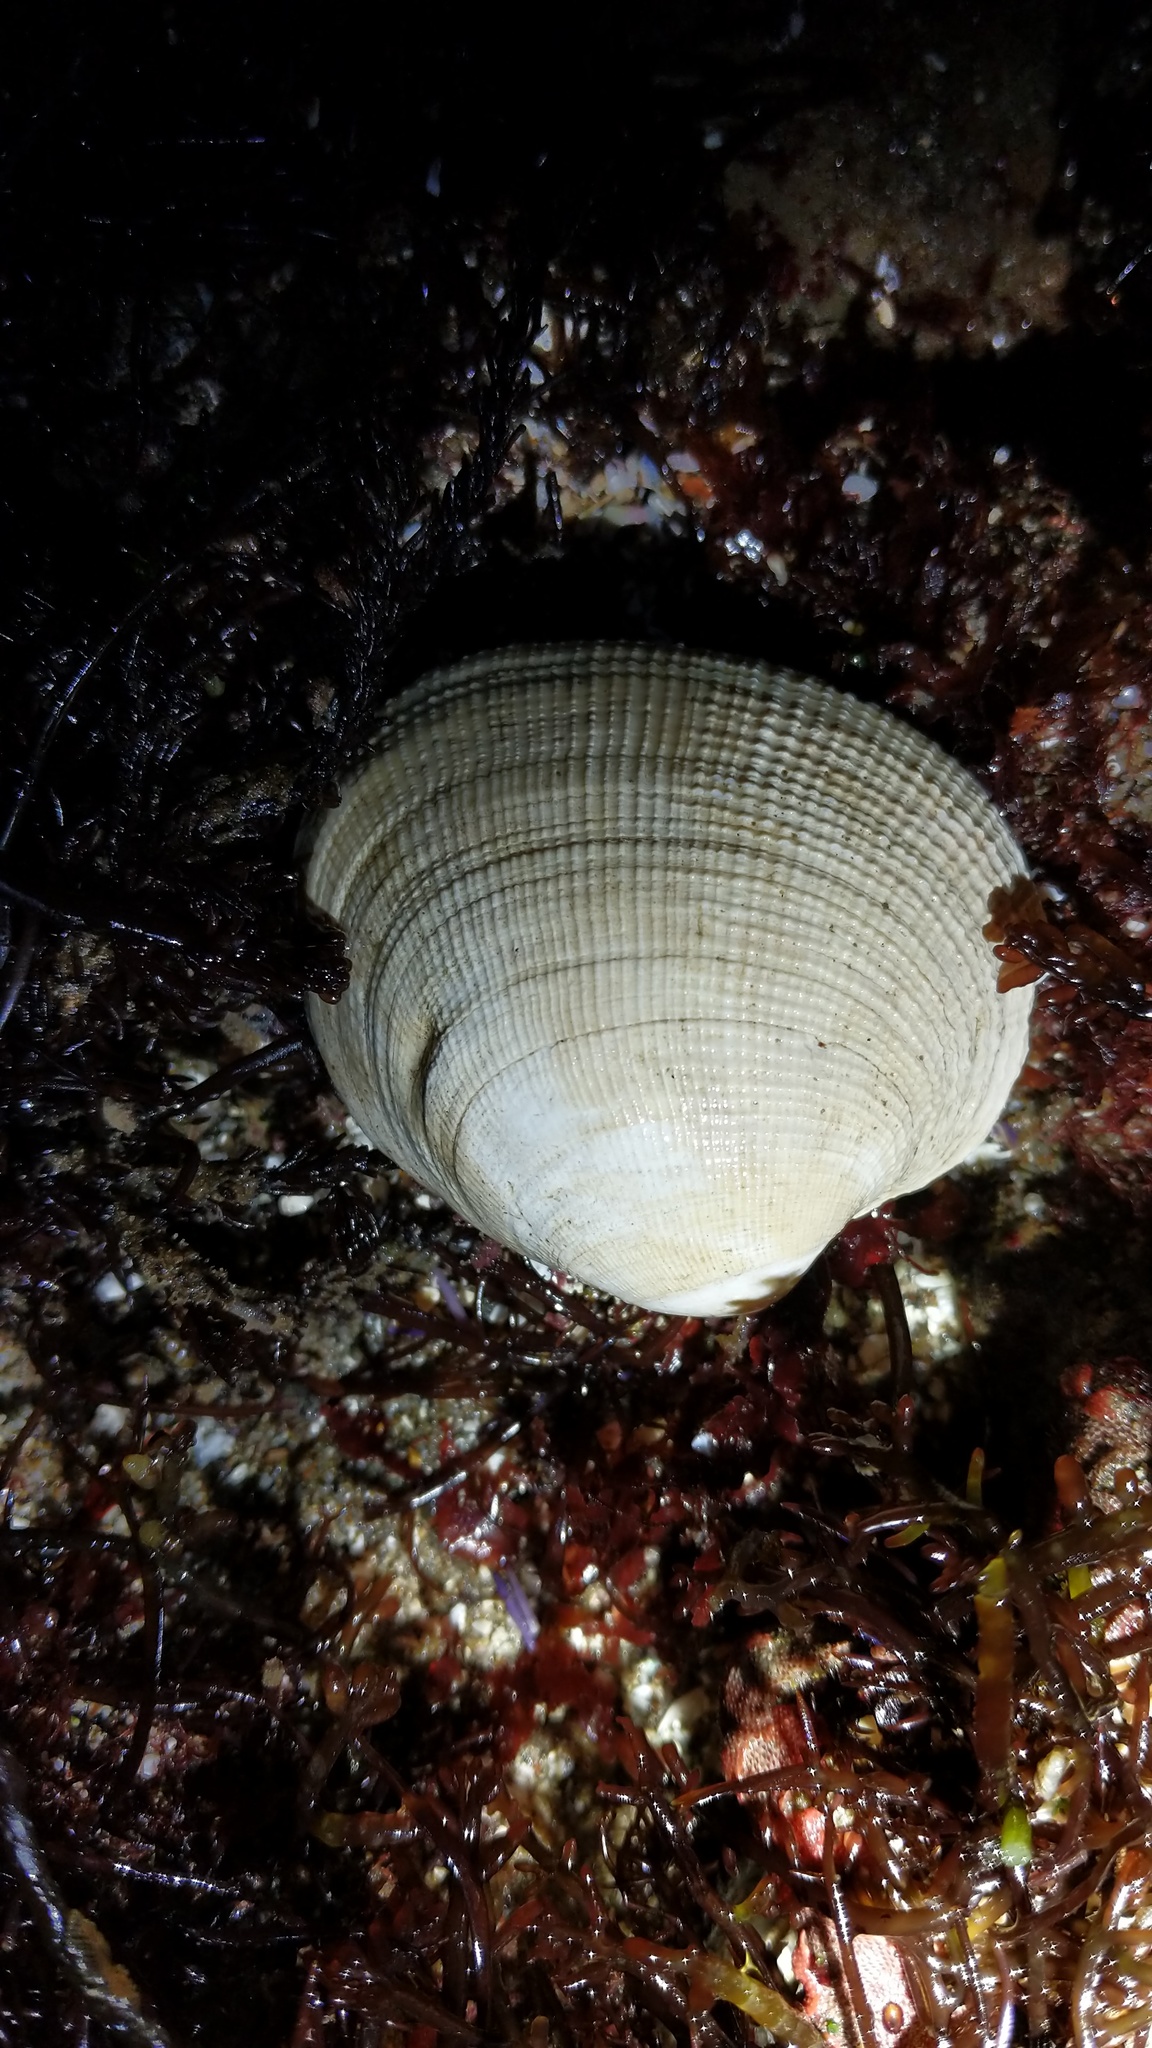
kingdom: Animalia
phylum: Mollusca
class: Bivalvia
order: Venerida
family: Veneridae
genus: Leukoma
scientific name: Leukoma staminea
